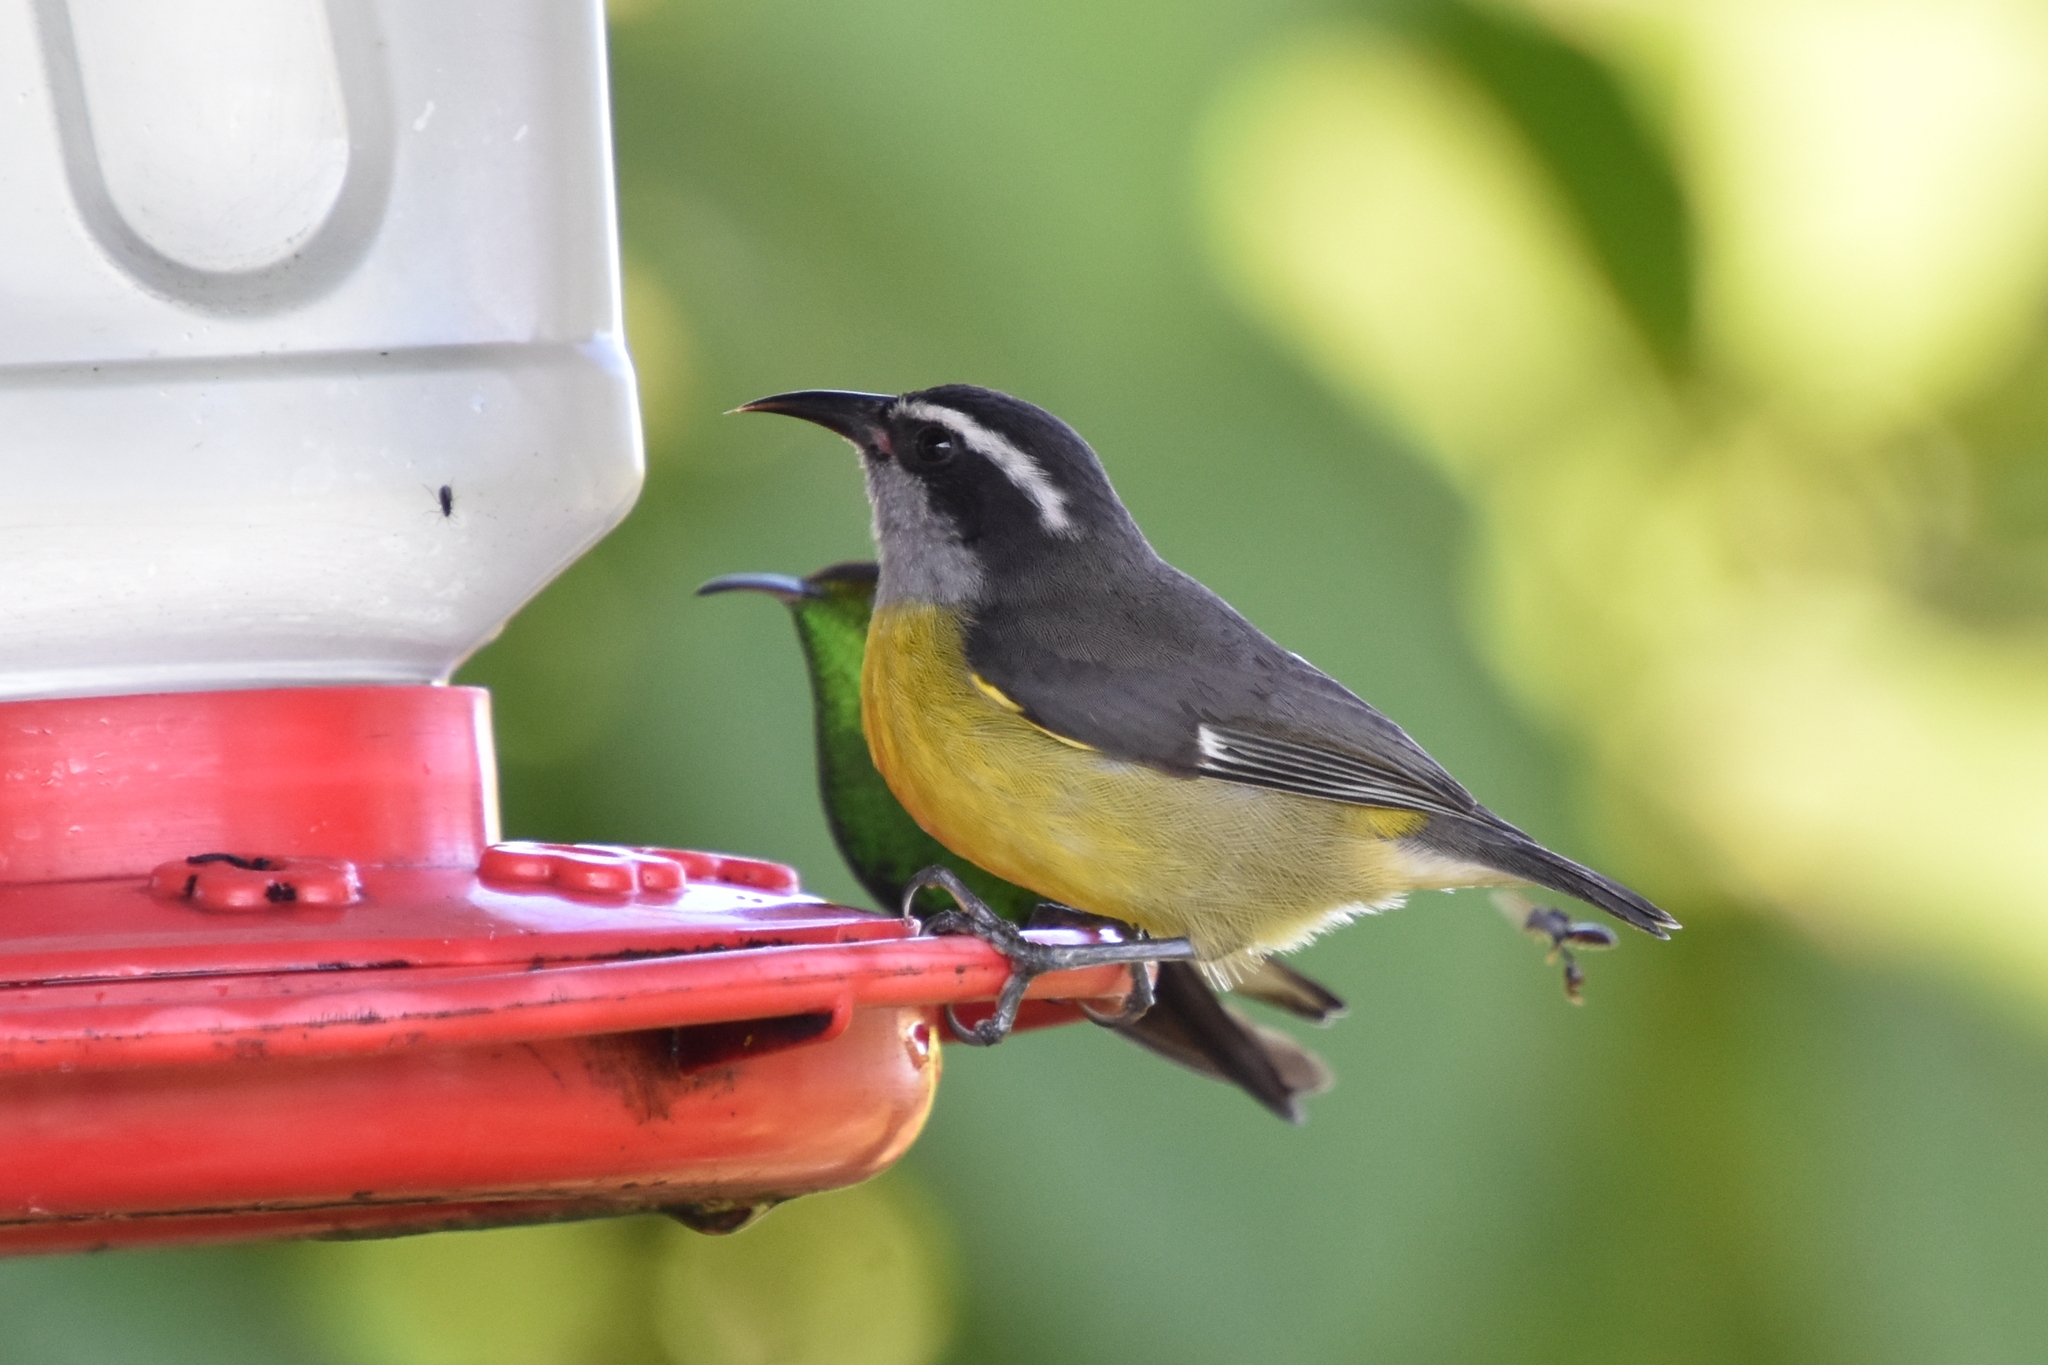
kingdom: Animalia
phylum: Chordata
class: Aves
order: Passeriformes
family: Thraupidae
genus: Coereba
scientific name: Coereba flaveola
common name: Bananaquit
